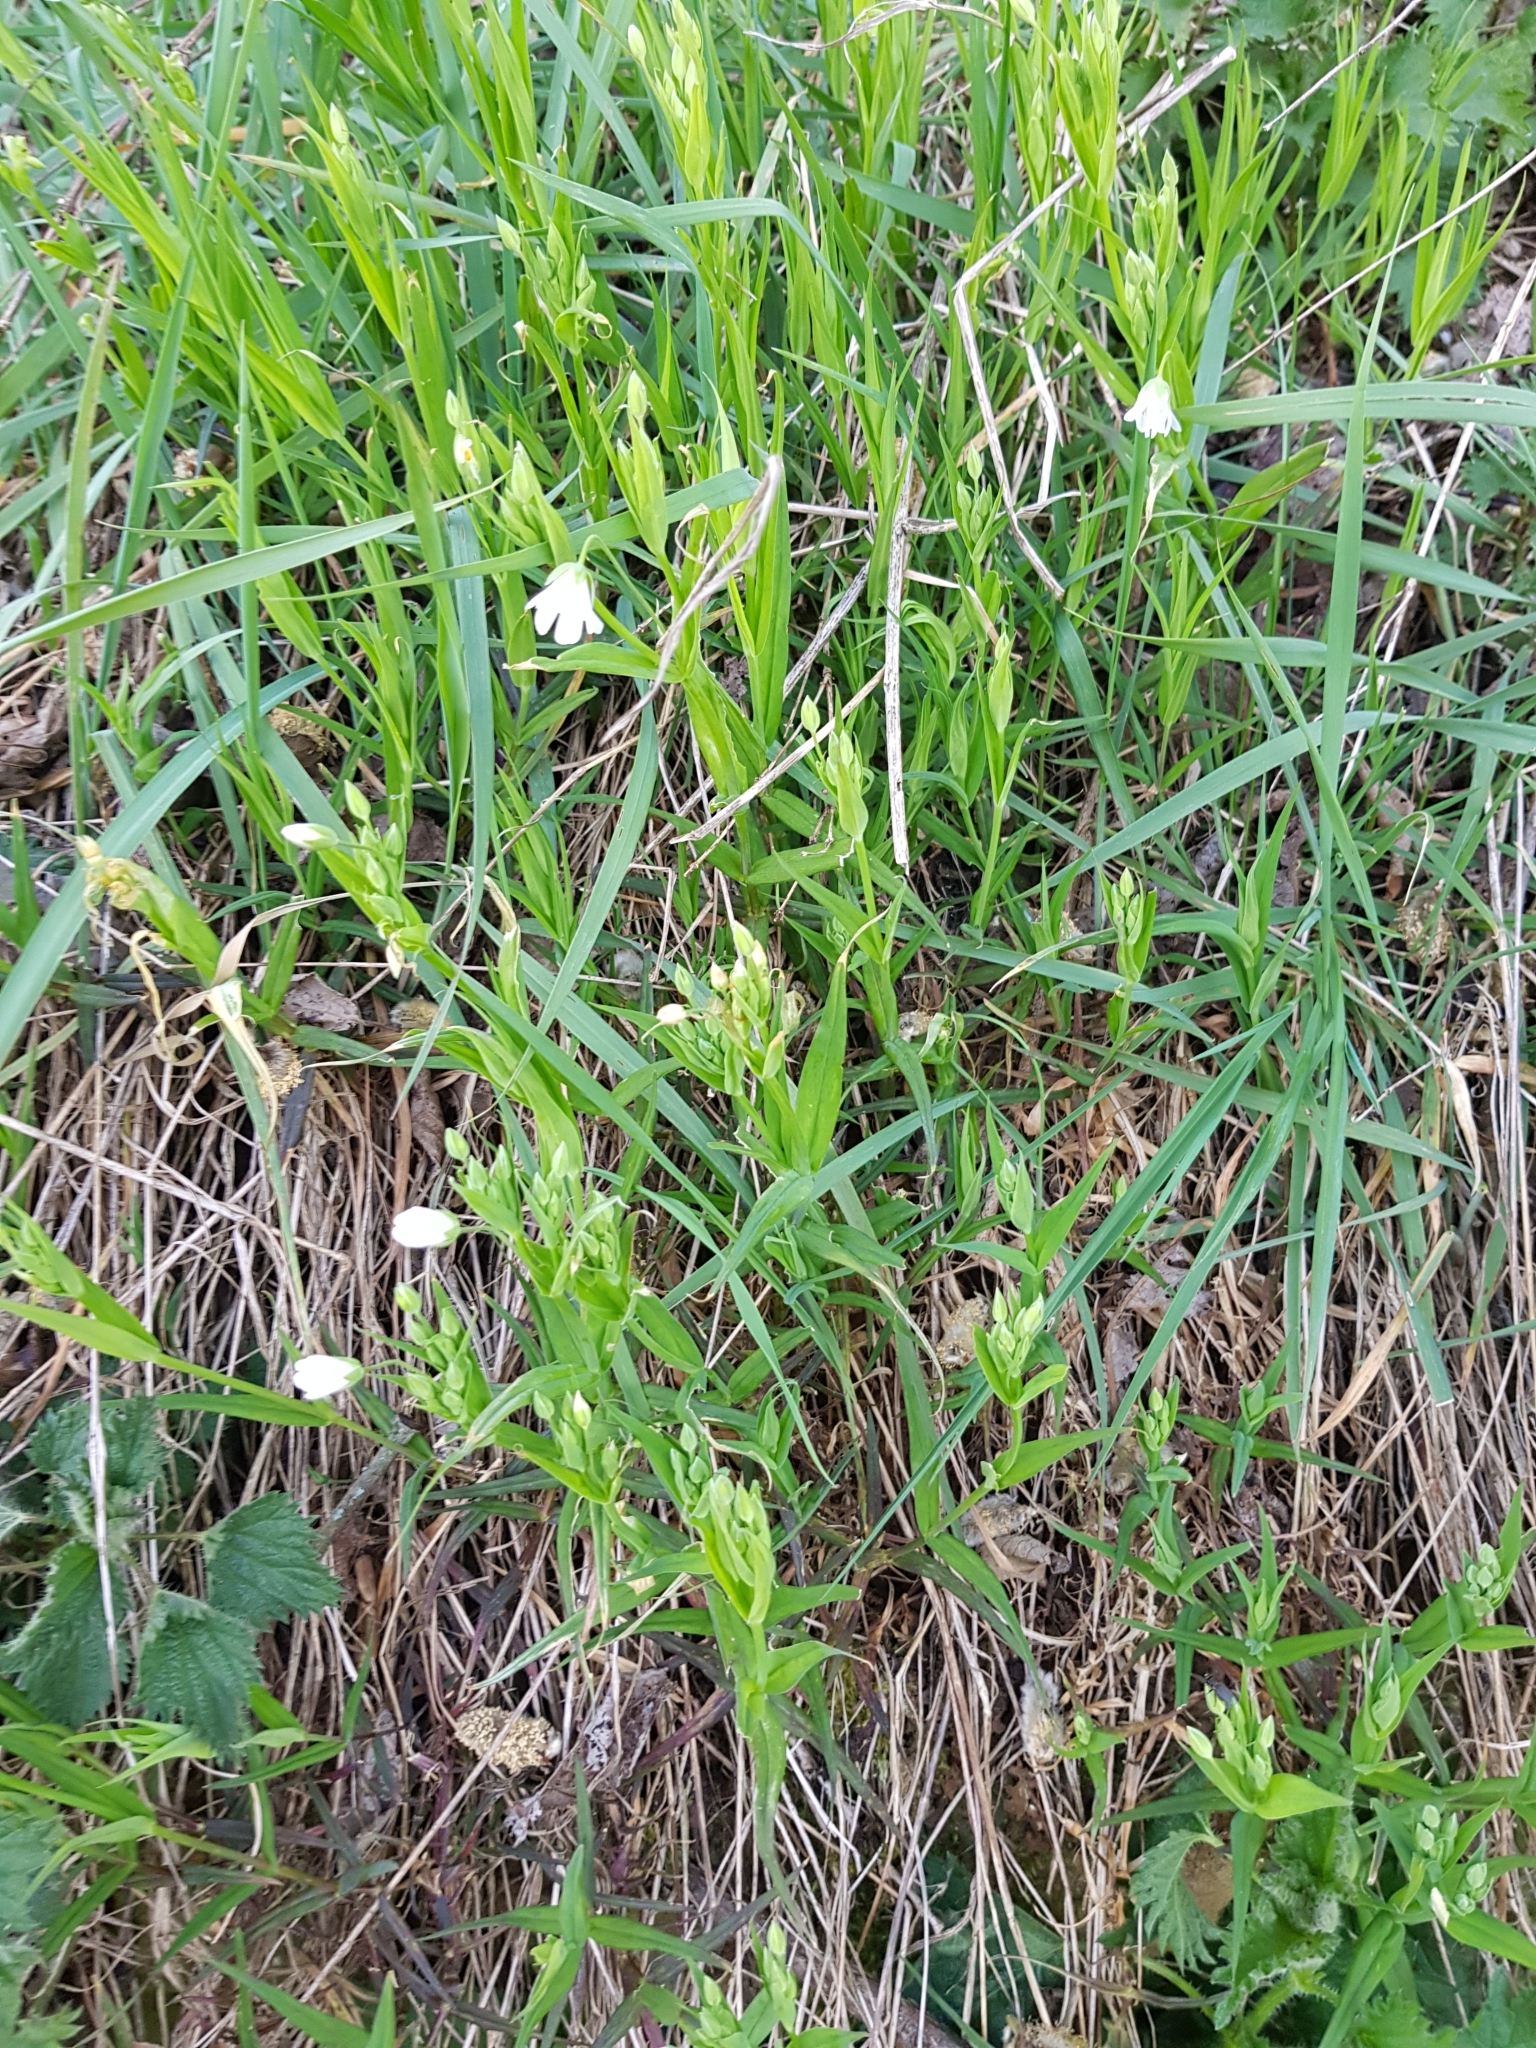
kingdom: Plantae
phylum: Tracheophyta
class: Magnoliopsida
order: Caryophyllales
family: Caryophyllaceae
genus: Rabelera
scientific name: Rabelera holostea
